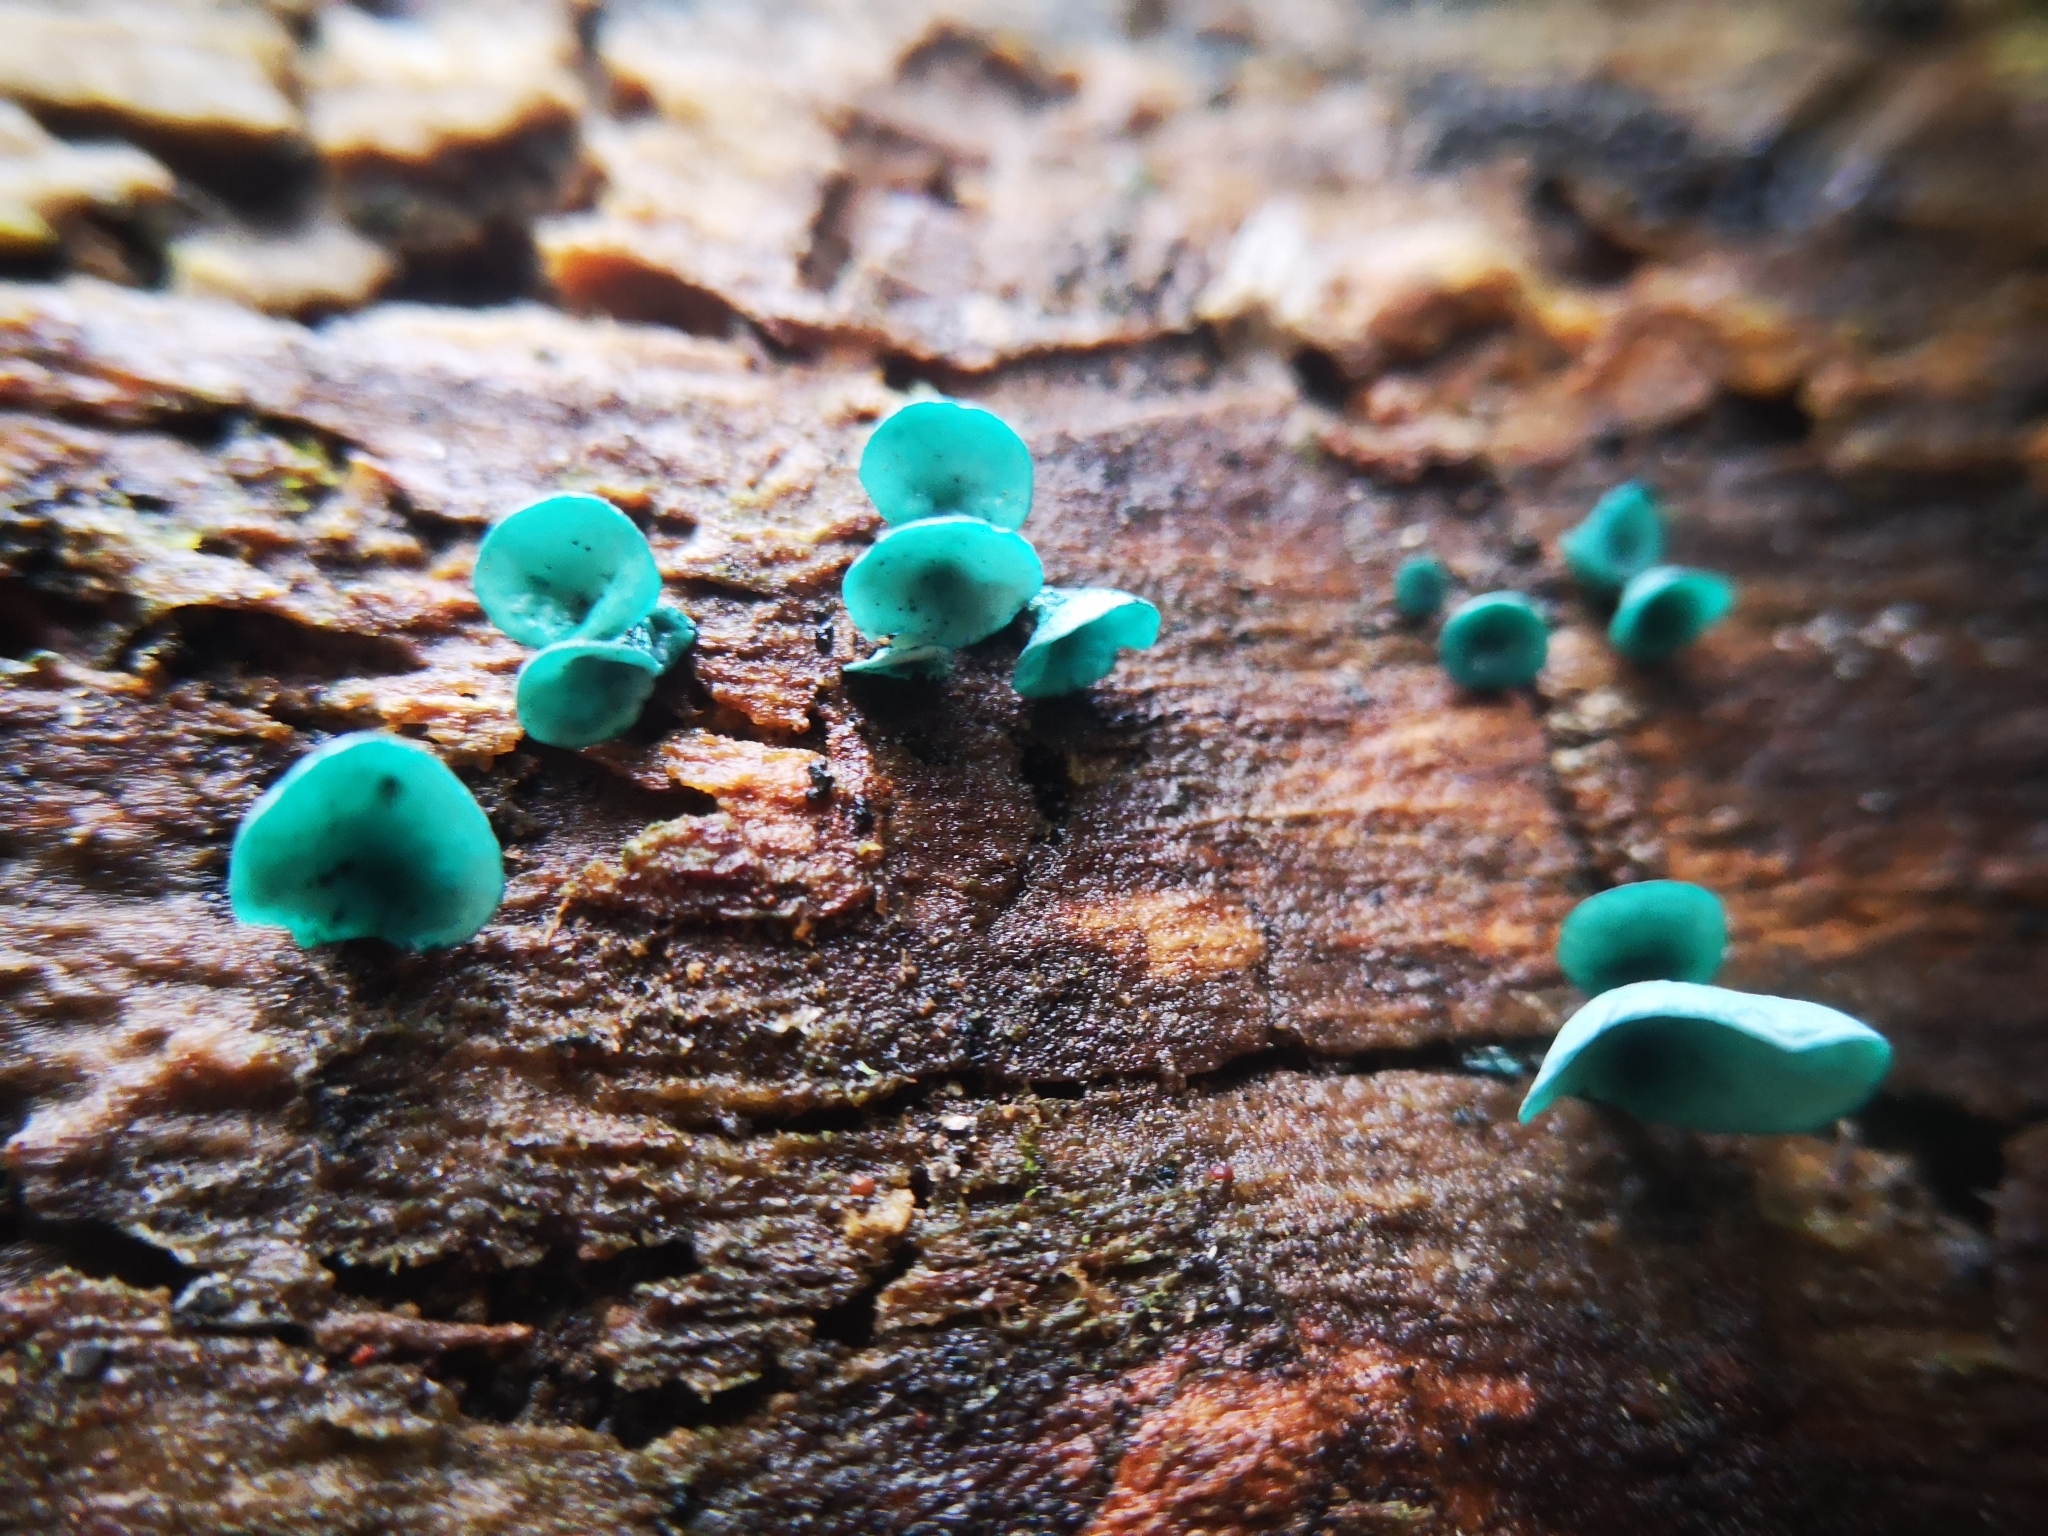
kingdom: Fungi
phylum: Ascomycota
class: Leotiomycetes
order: Helotiales
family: Chlorociboriaceae
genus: Chlorociboria
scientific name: Chlorociboria aeruginascens
